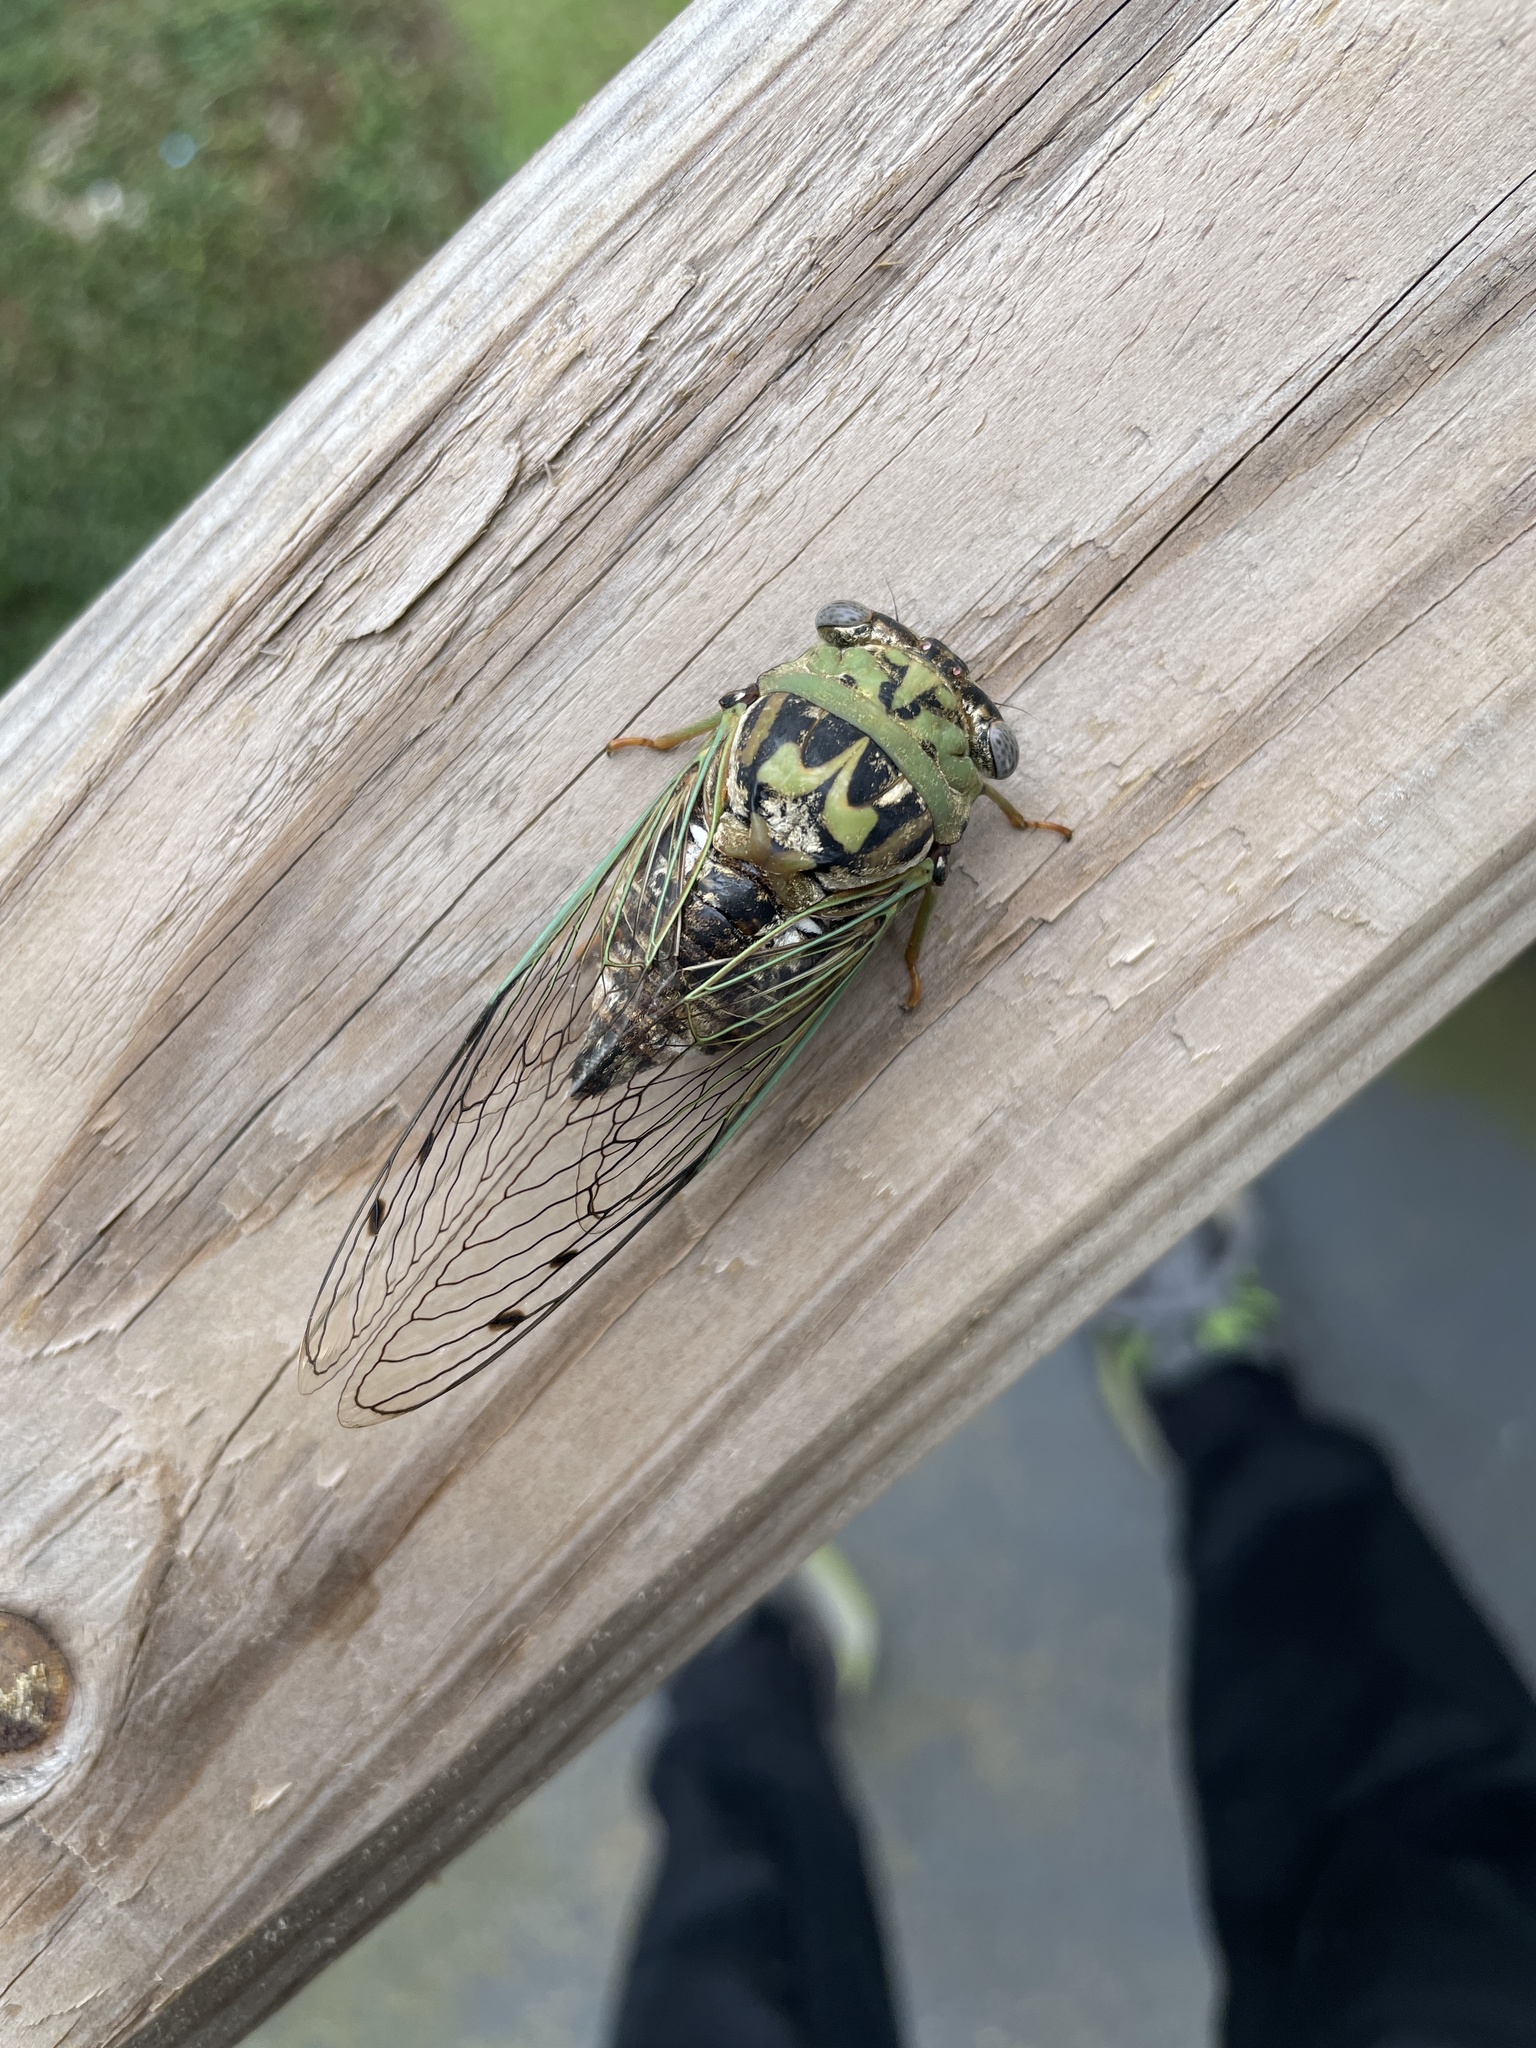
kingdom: Animalia
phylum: Arthropoda
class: Insecta
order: Hemiptera
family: Cicadidae
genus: Megatibicen
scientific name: Megatibicen resh
